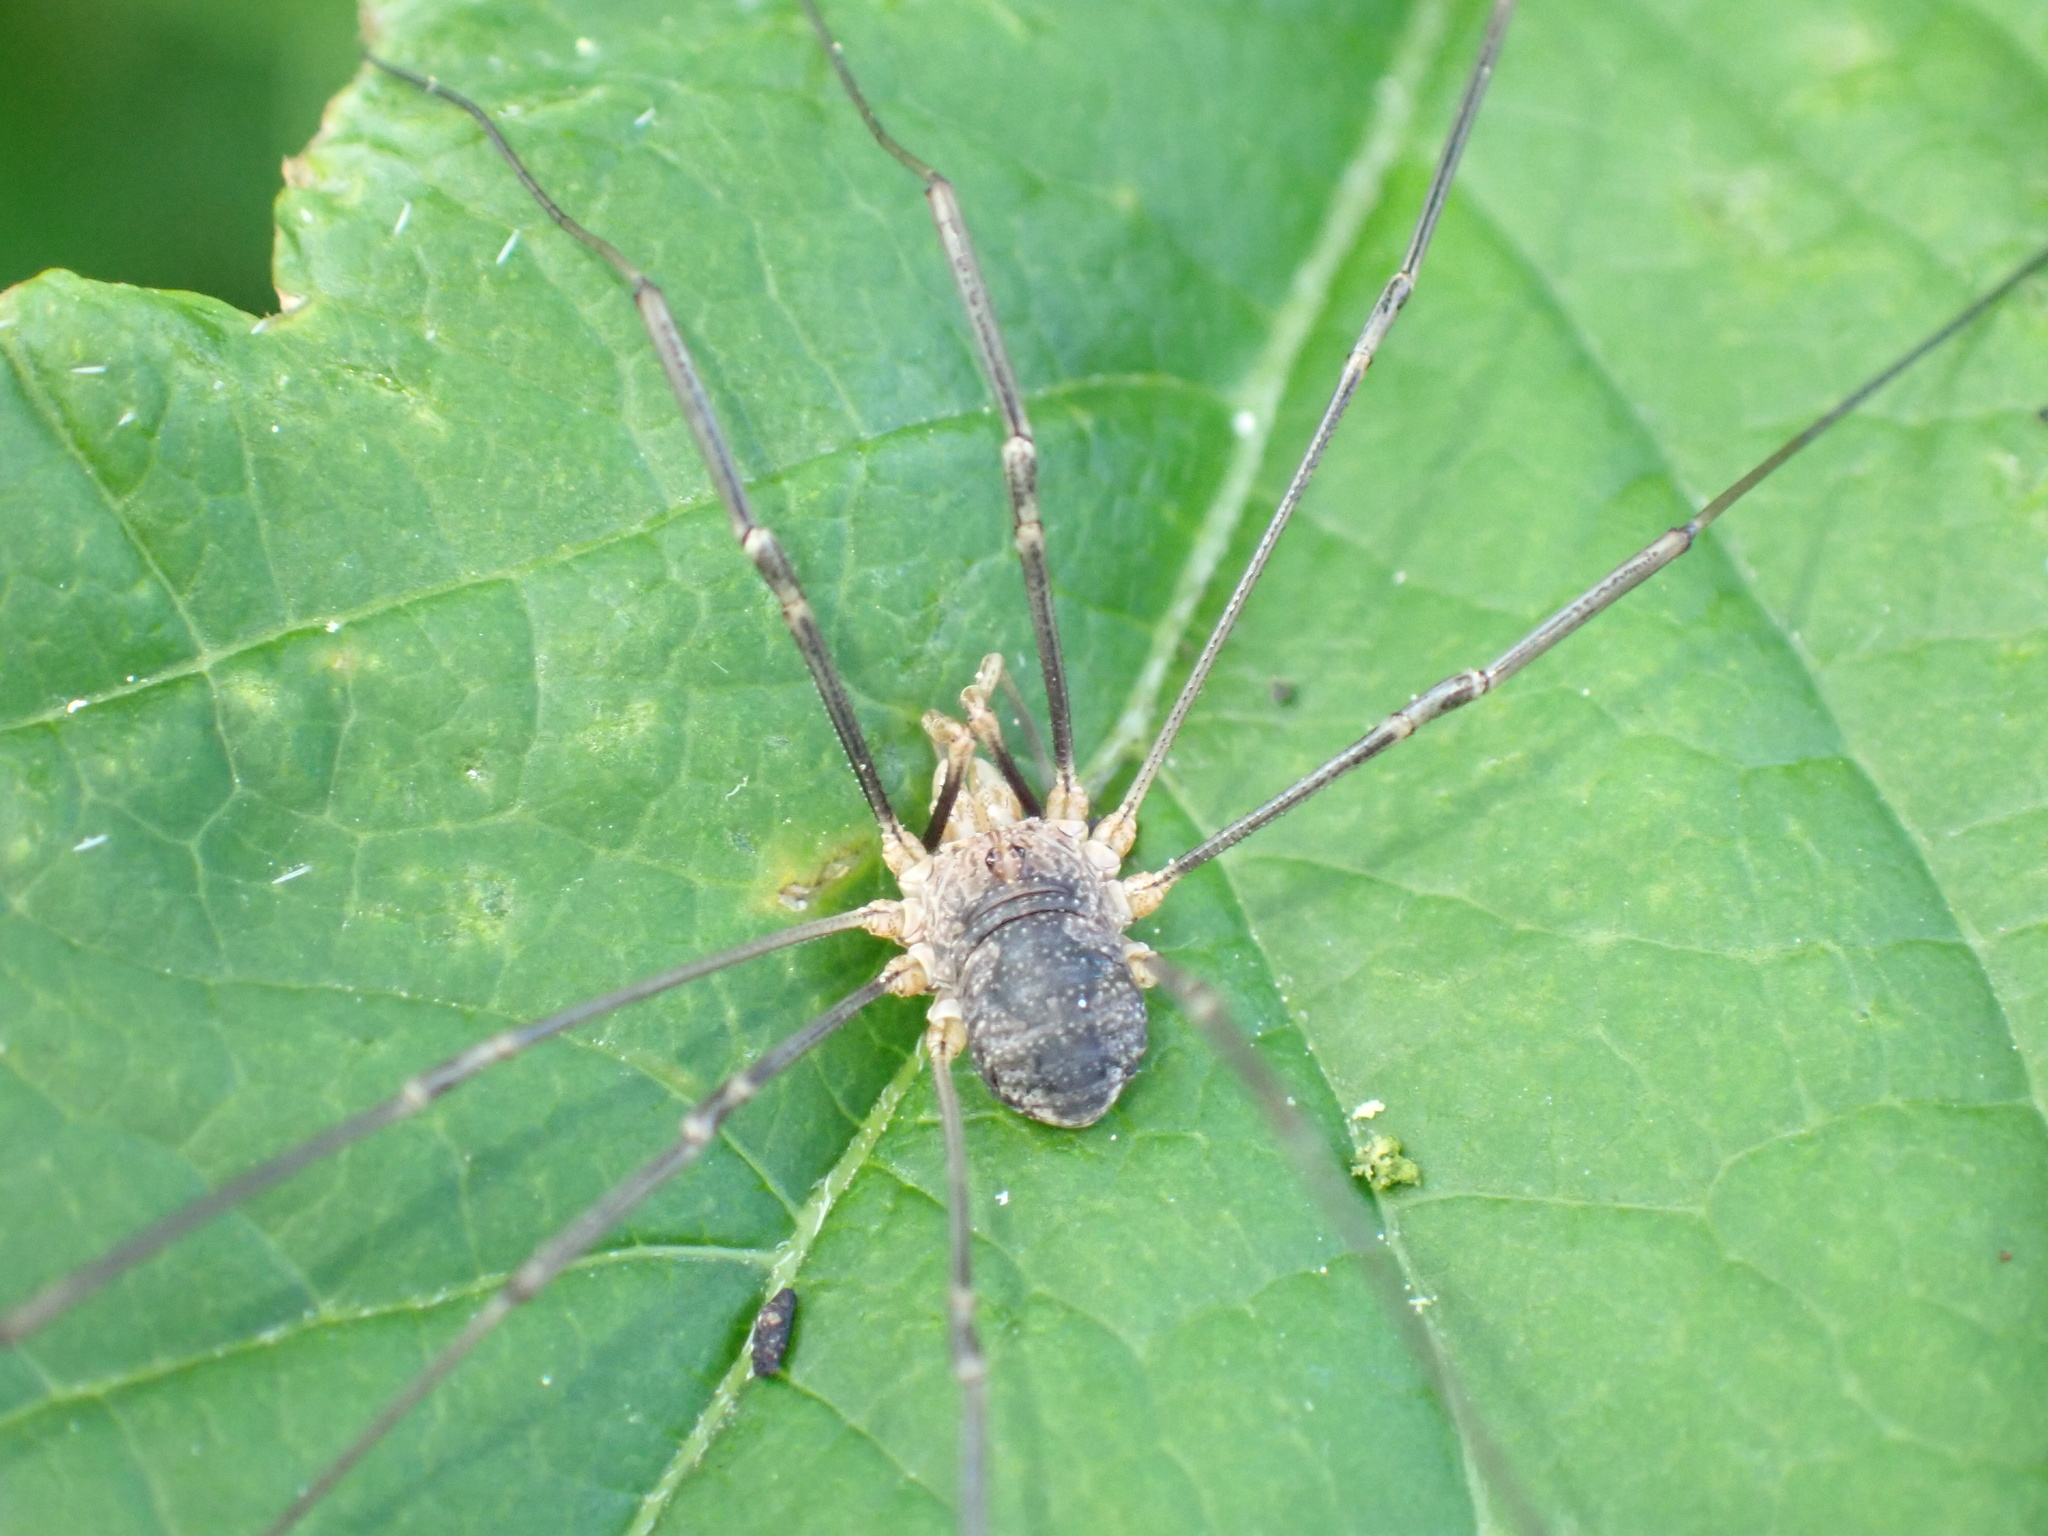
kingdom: Animalia
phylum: Arthropoda
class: Arachnida
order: Opiliones
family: Phalangiidae
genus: Phalangium
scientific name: Phalangium opilio
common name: Daddy longleg
